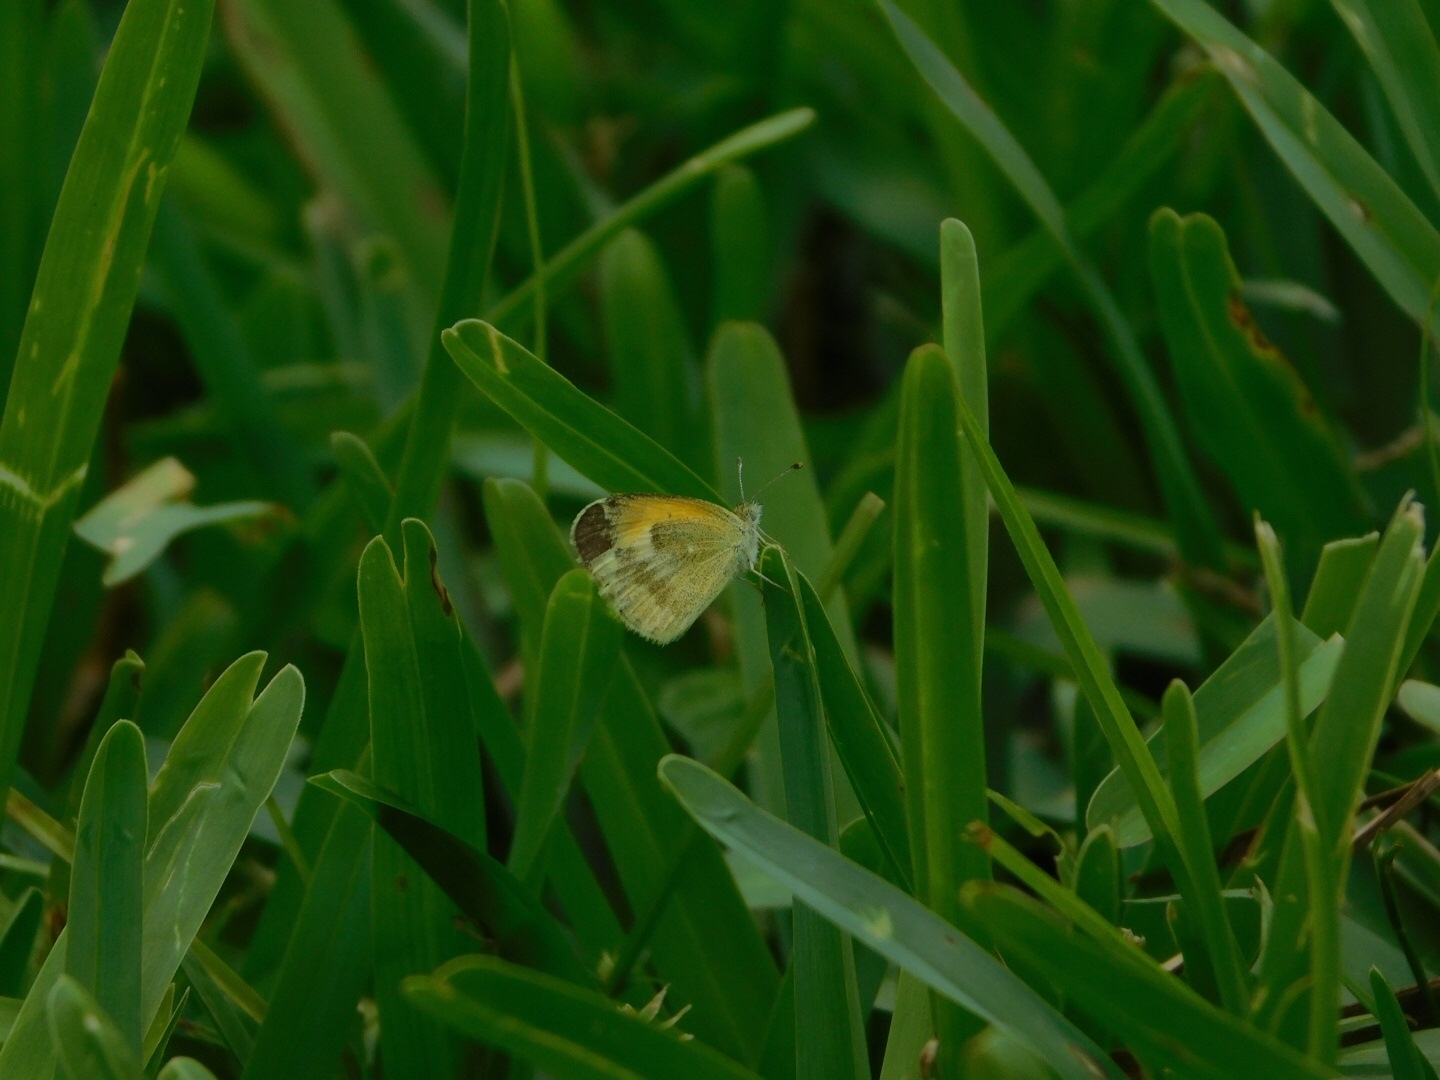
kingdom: Animalia
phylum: Arthropoda
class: Insecta
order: Lepidoptera
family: Pieridae
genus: Nathalis
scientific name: Nathalis iole
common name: Dainty sulphur
